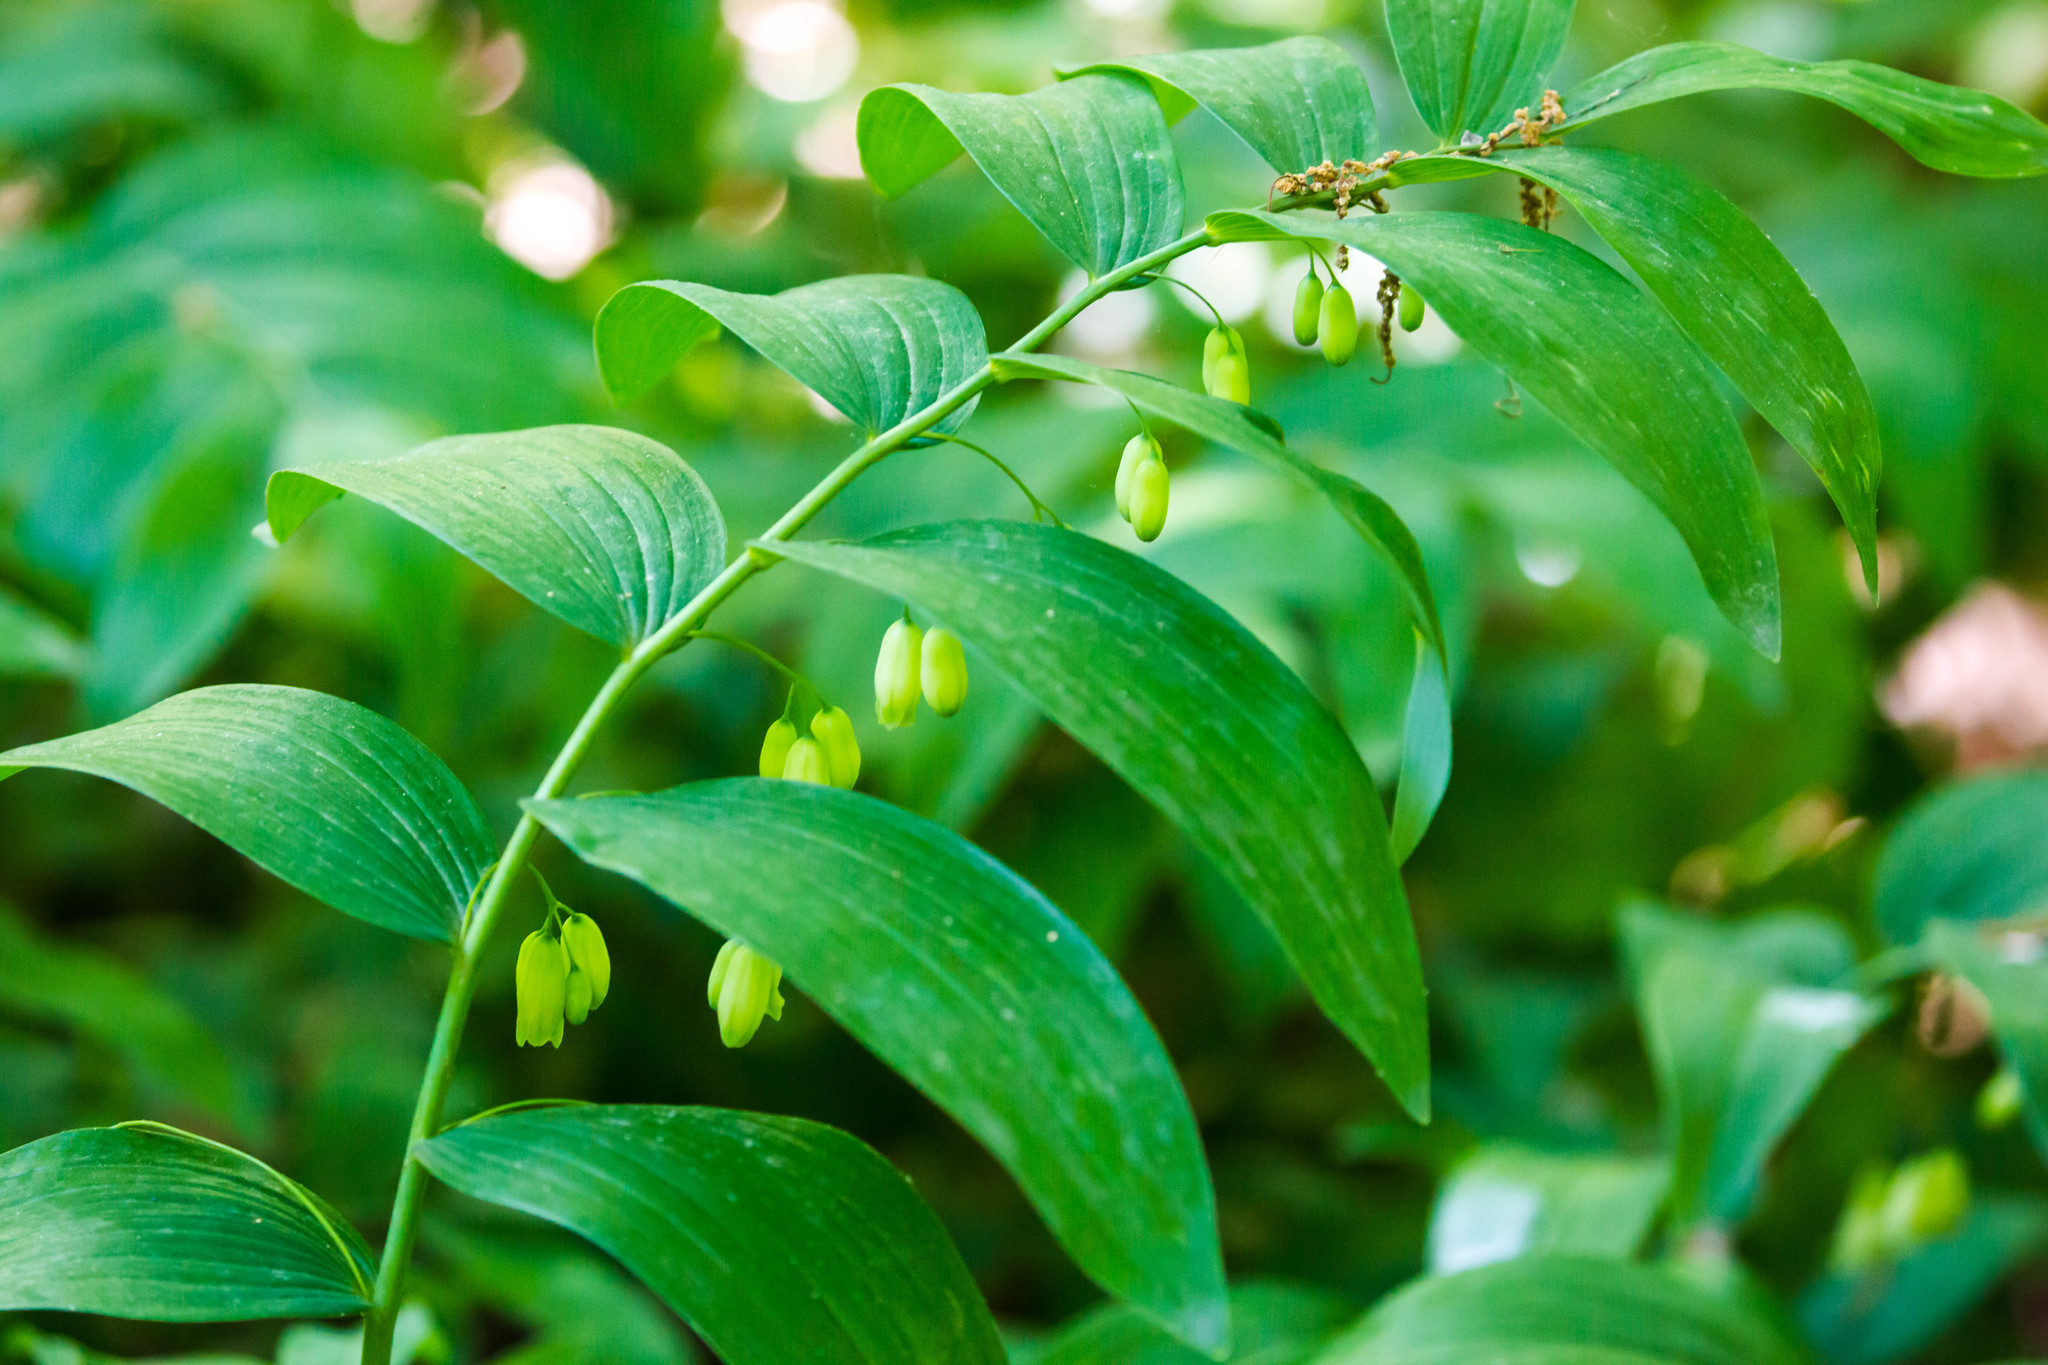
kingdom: Plantae
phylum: Tracheophyta
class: Liliopsida
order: Asparagales
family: Asparagaceae
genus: Polygonatum
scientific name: Polygonatum biflorum
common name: American solomon's-seal
